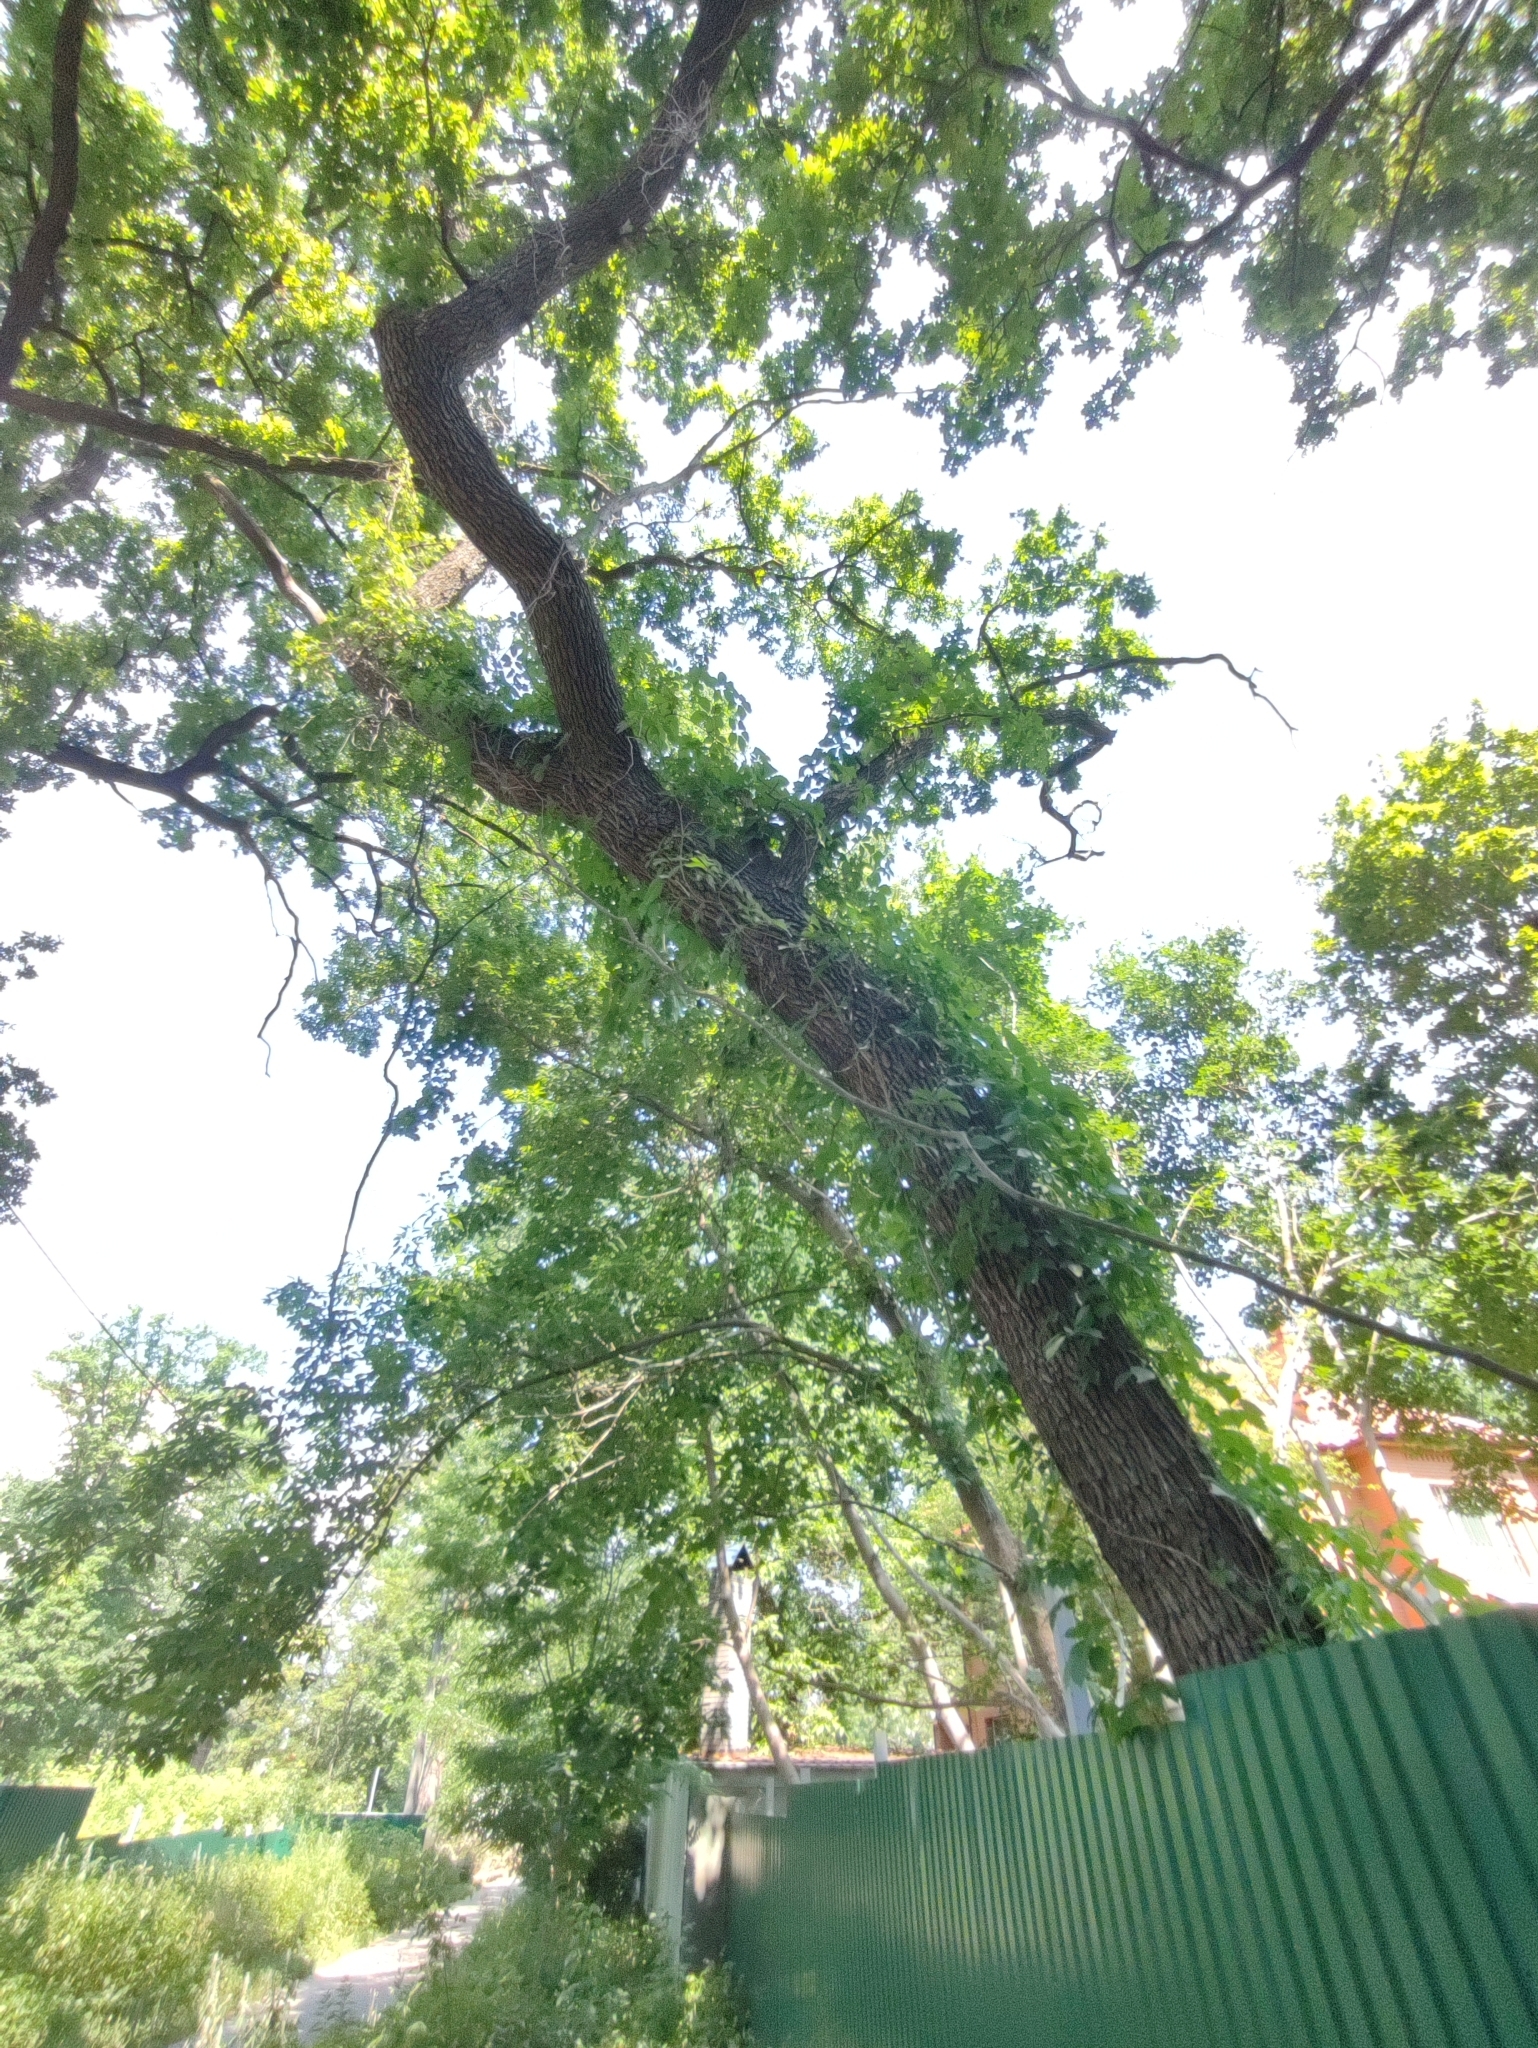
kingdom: Plantae
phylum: Tracheophyta
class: Magnoliopsida
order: Fagales
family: Fagaceae
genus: Quercus
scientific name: Quercus robur
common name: Pedunculate oak
